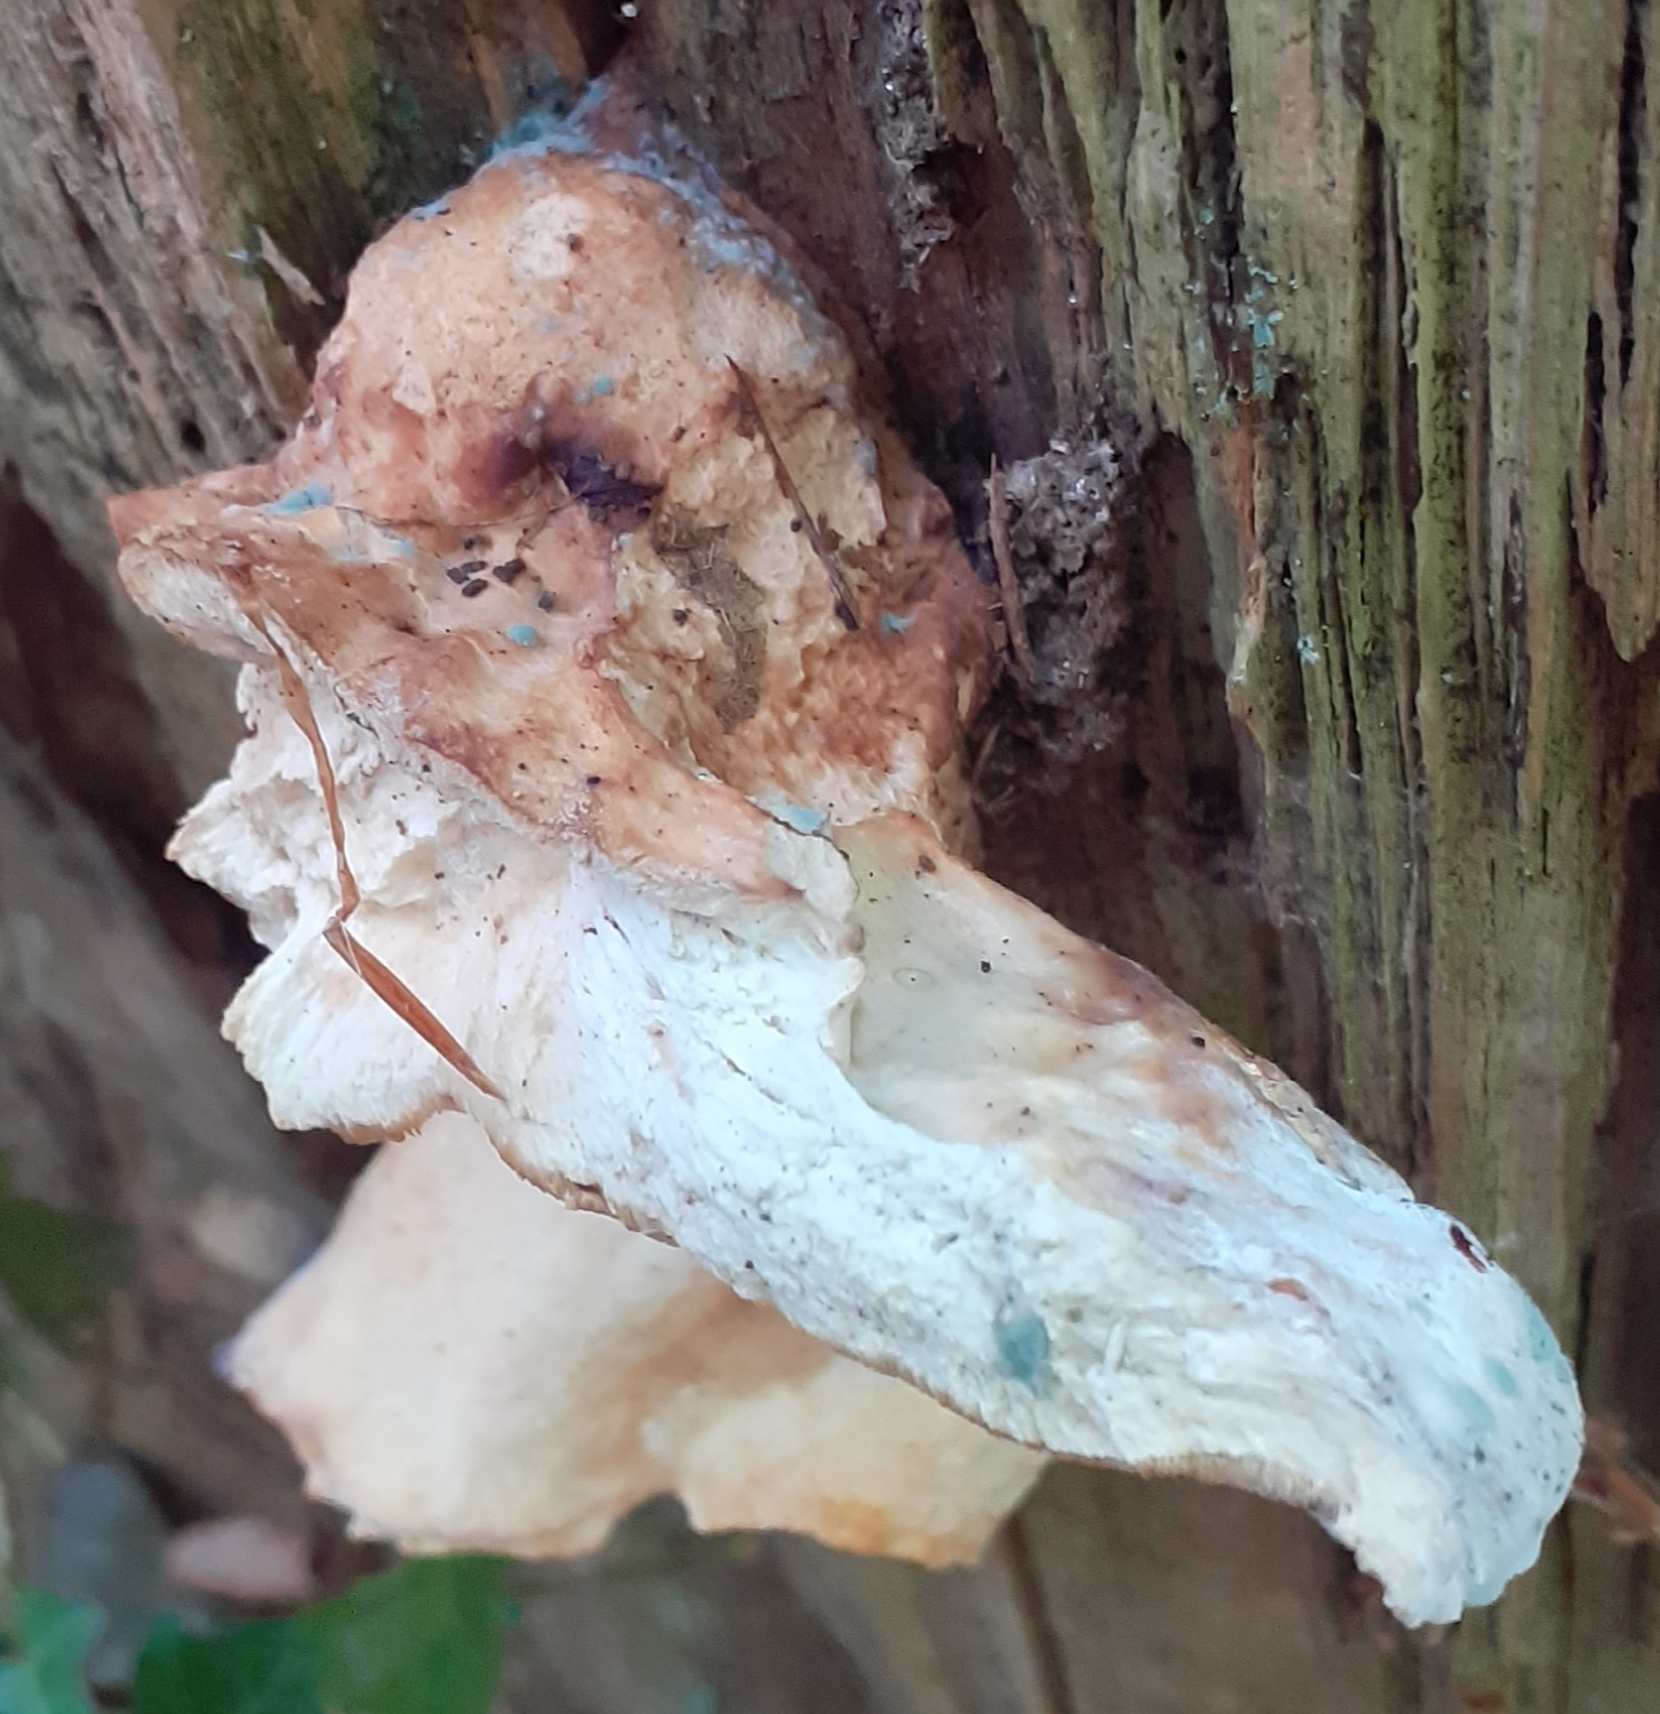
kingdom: Fungi
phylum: Basidiomycota
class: Agaricomycetes
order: Polyporales
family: Laetiporaceae
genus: Laetiporus
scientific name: Laetiporus sulphureus
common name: Chicken of the woods
